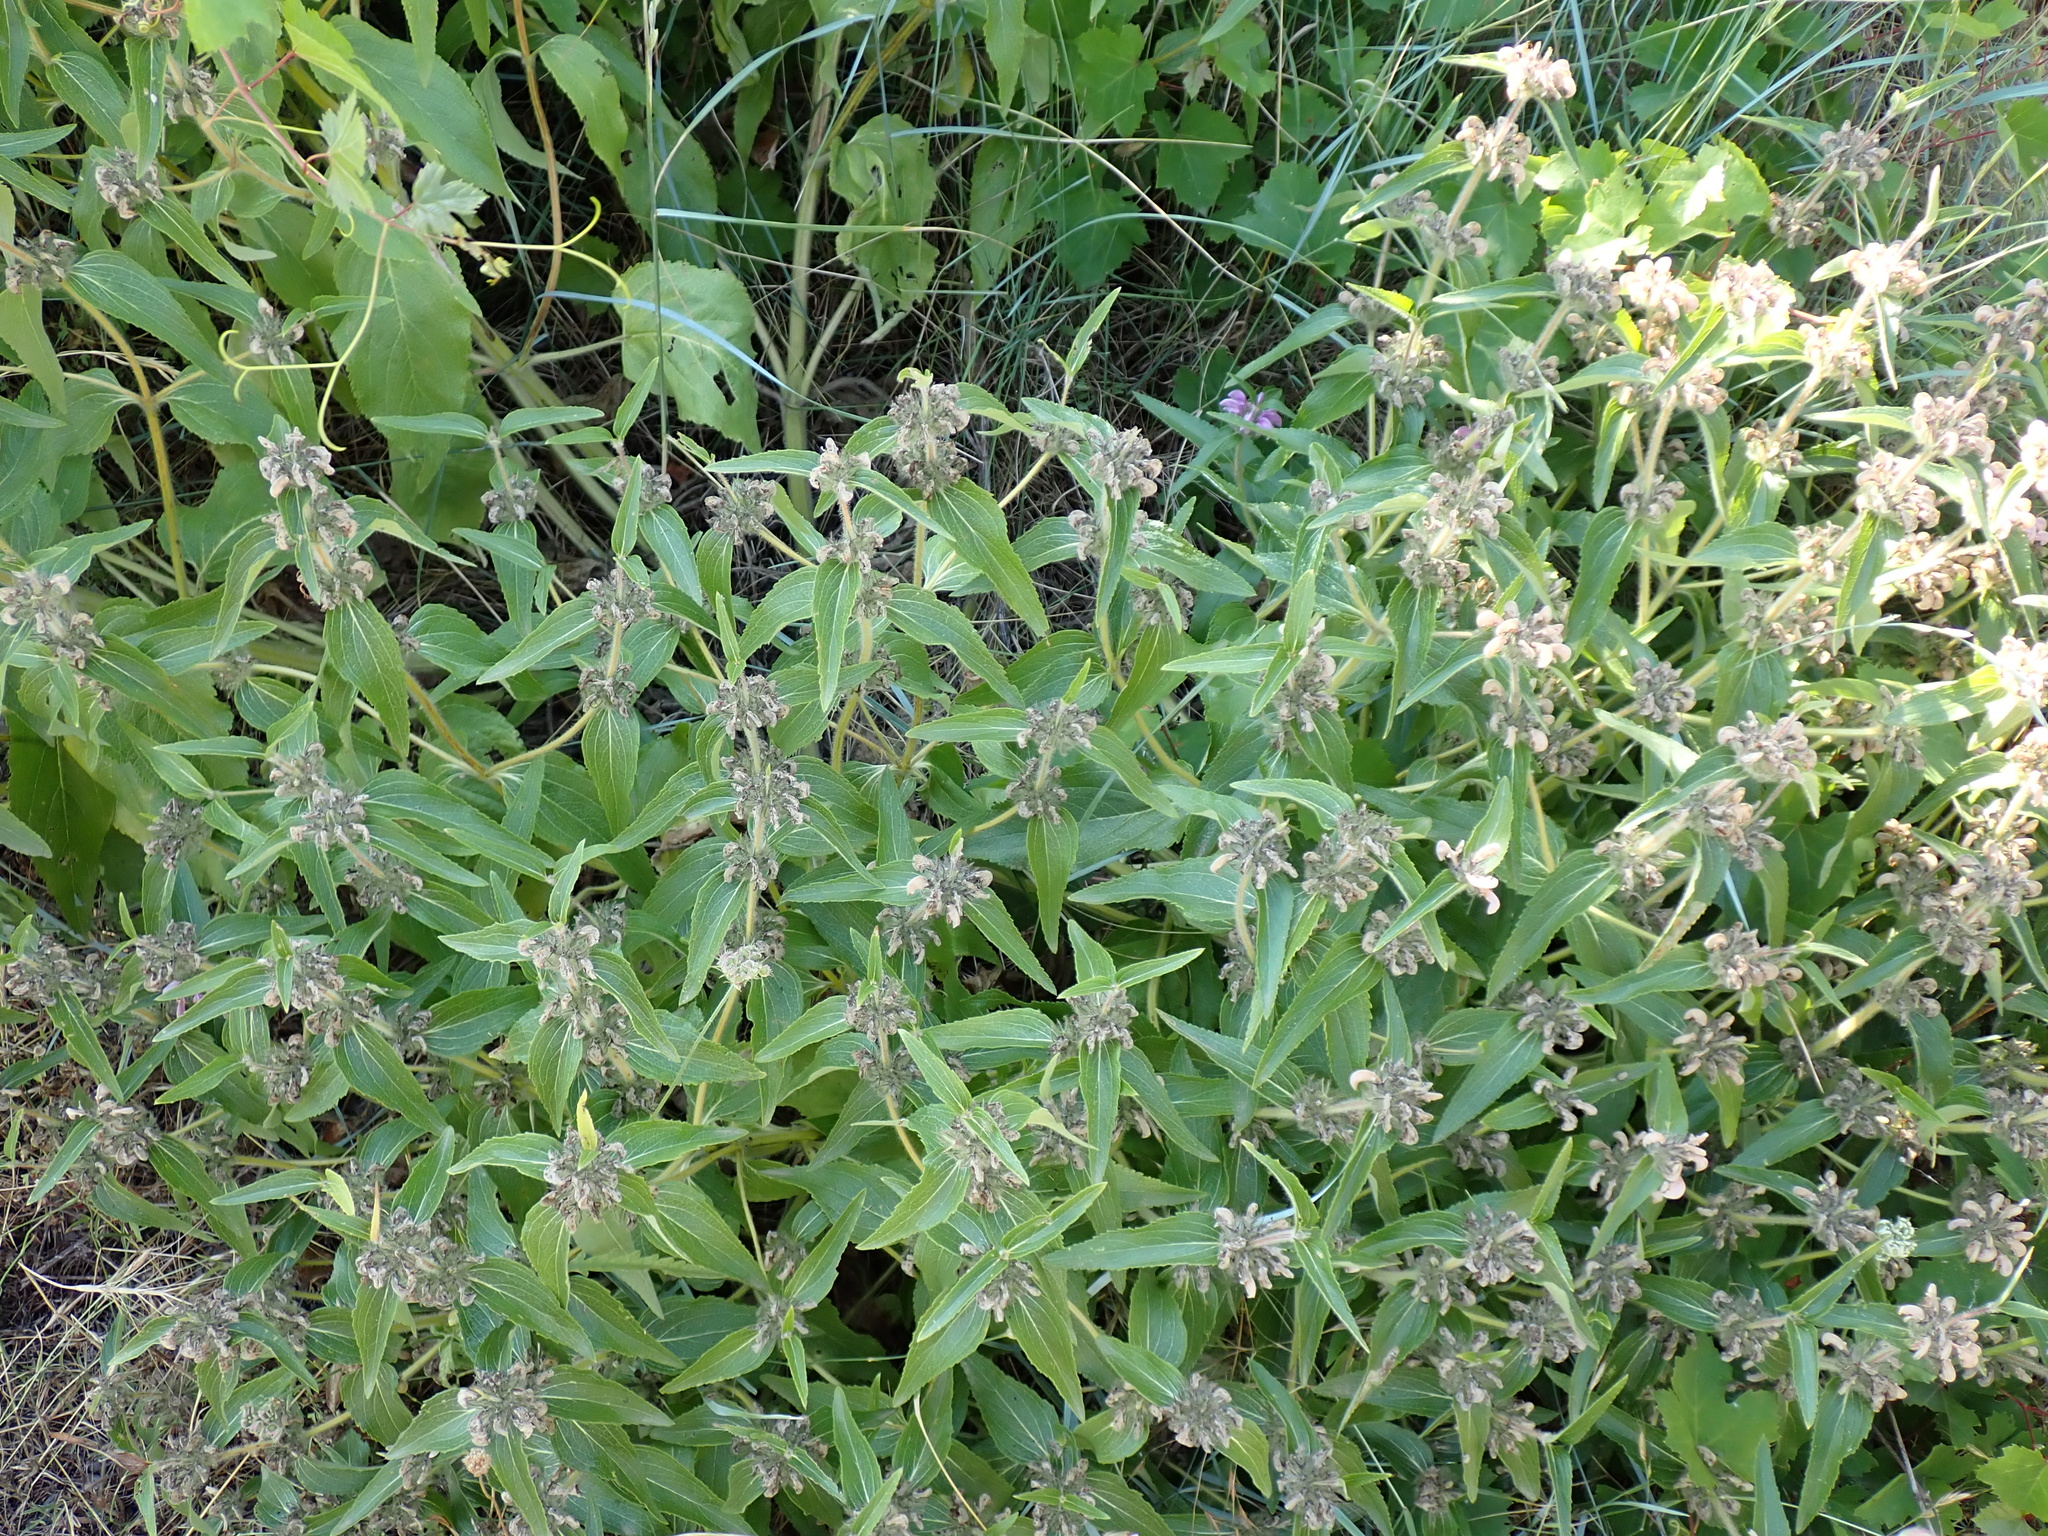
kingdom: Plantae
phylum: Tracheophyta
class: Magnoliopsida
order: Lamiales
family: Lamiaceae
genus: Phlomis
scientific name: Phlomis herba-venti
